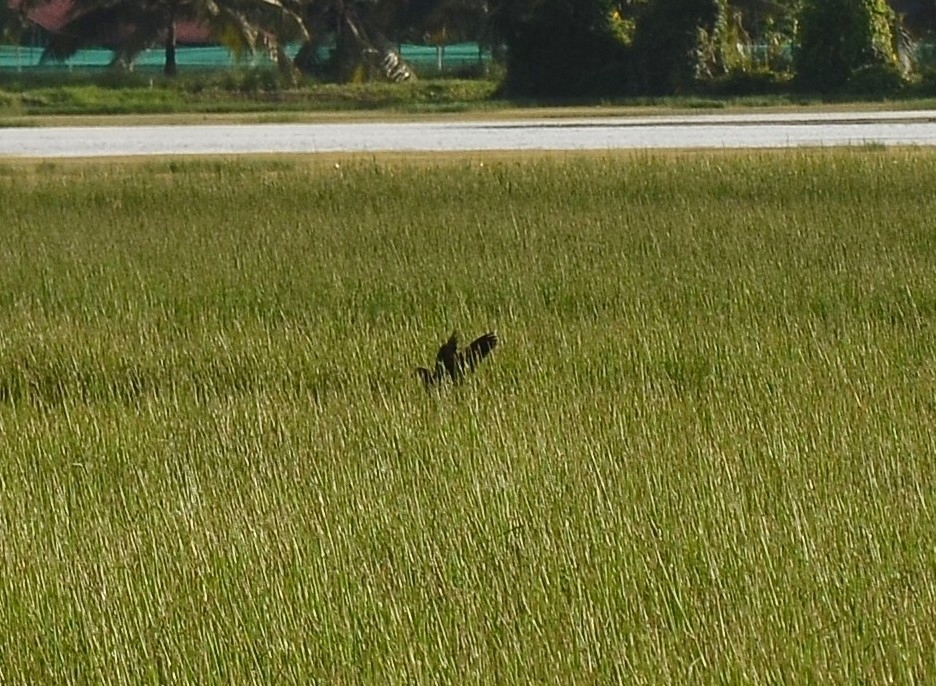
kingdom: Animalia
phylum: Chordata
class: Aves
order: Gruiformes
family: Rallidae
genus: Porphyrio
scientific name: Porphyrio porphyrio
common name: Purple swamphen
